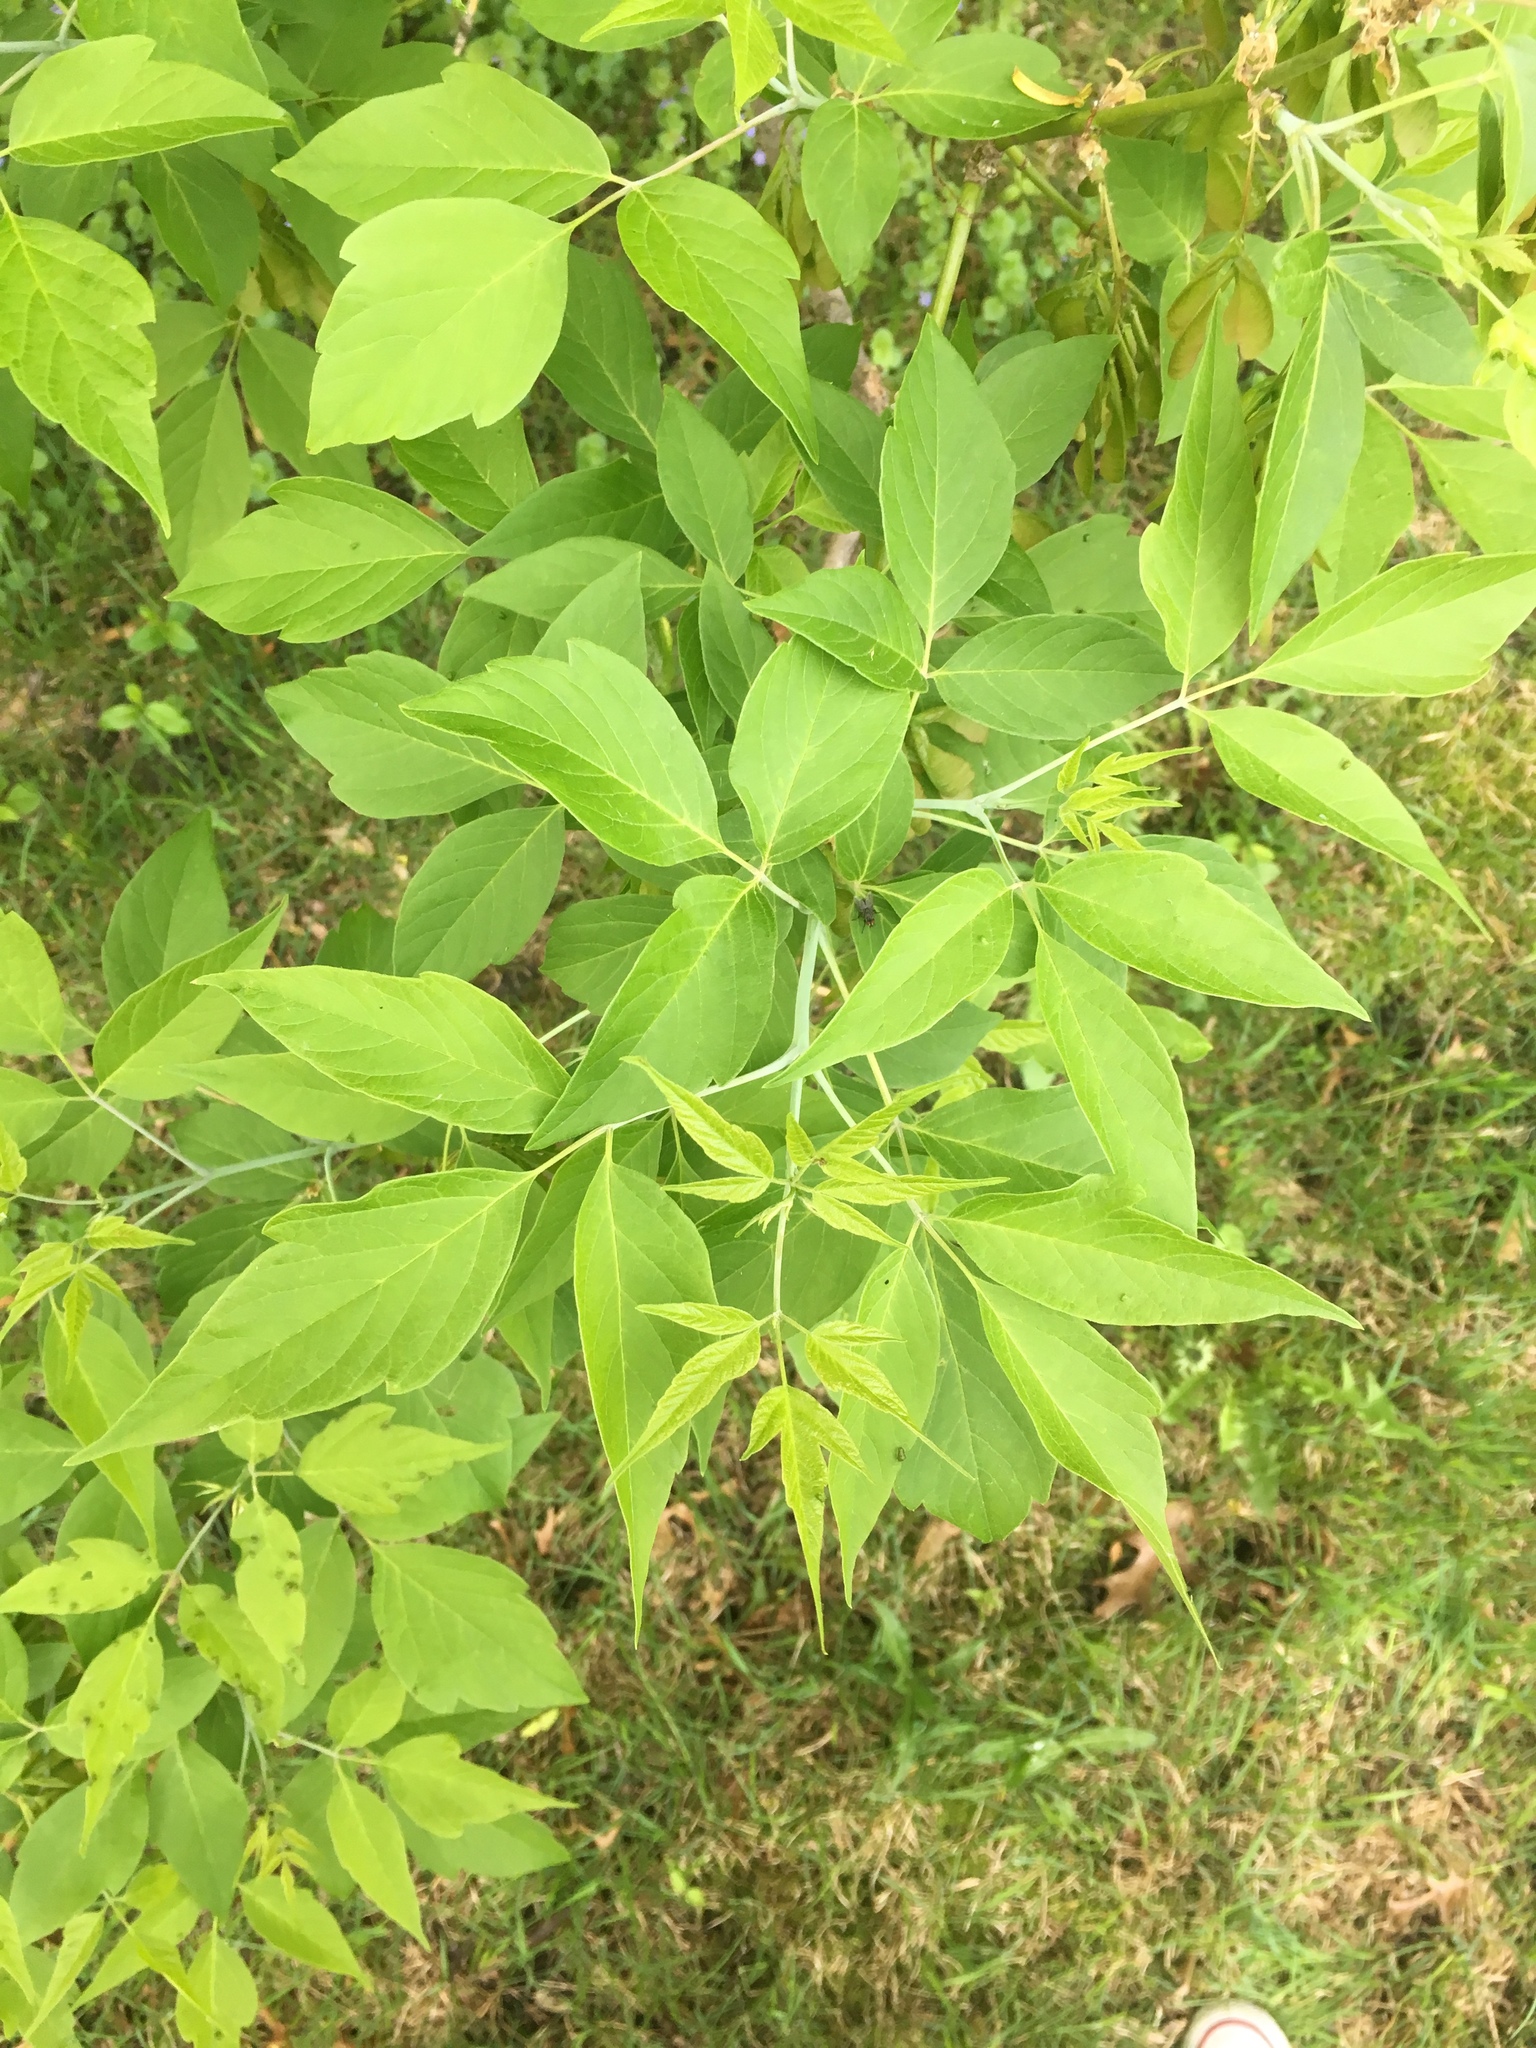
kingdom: Plantae
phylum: Tracheophyta
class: Magnoliopsida
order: Sapindales
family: Sapindaceae
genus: Acer
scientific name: Acer negundo
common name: Ashleaf maple
